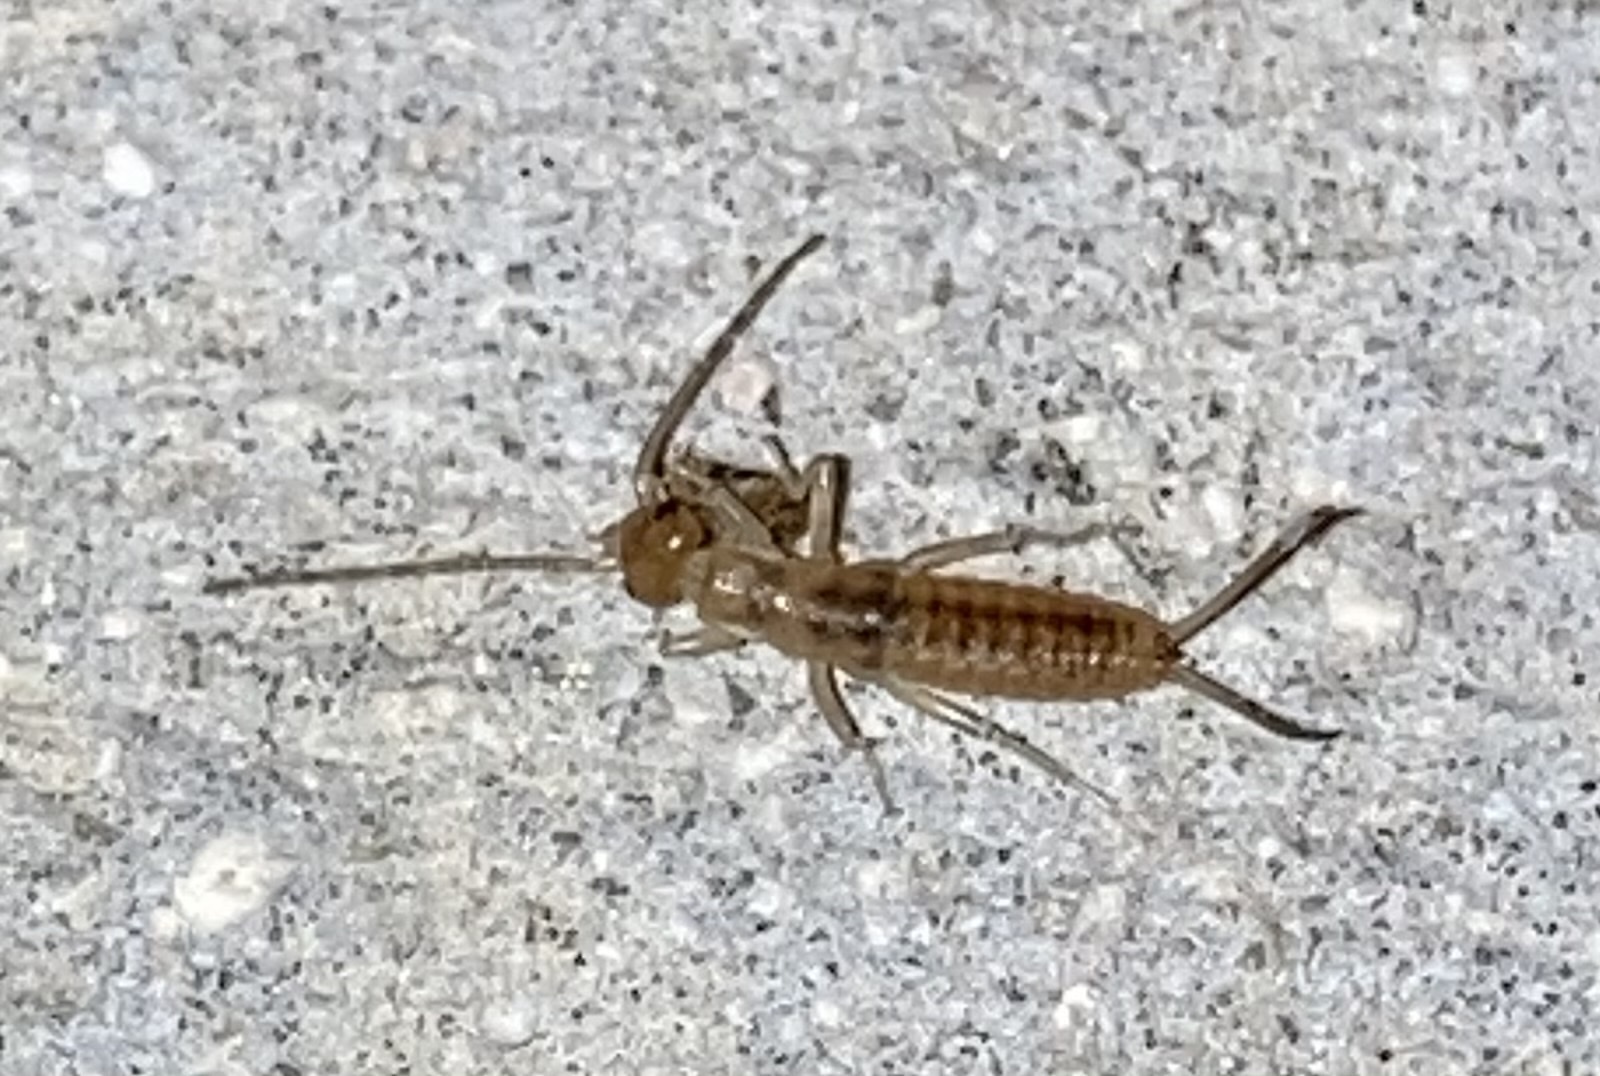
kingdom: Animalia
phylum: Arthropoda
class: Insecta
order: Dermaptera
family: Labiduridae
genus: Labidura
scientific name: Labidura riparia
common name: Striped earwig
